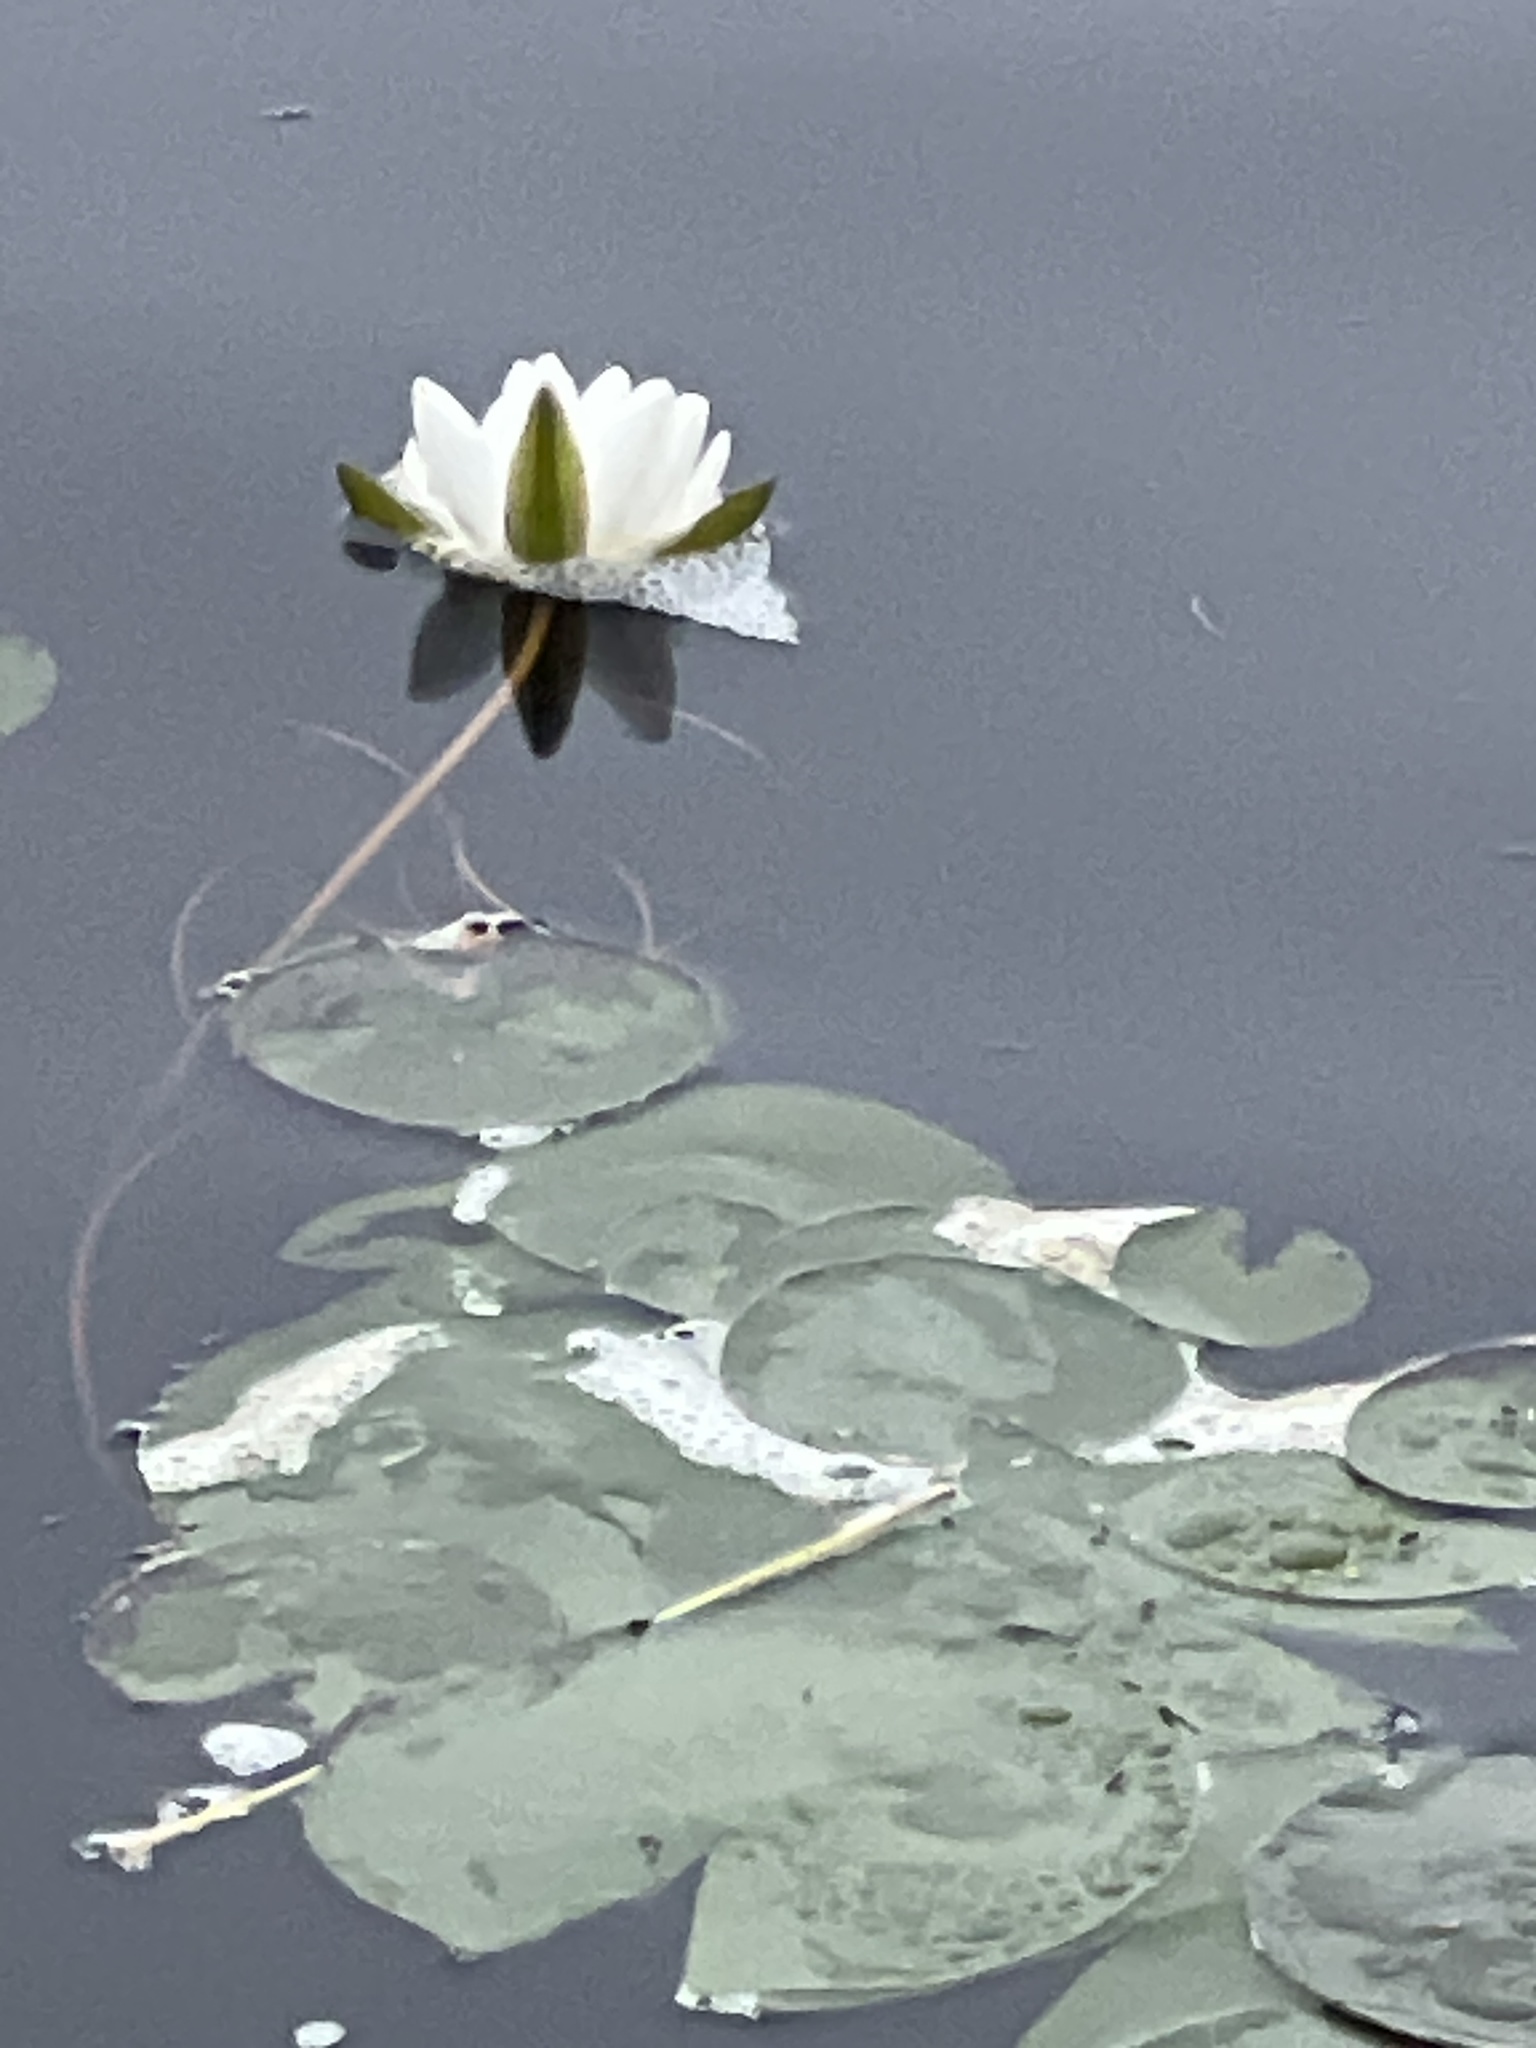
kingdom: Plantae
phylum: Tracheophyta
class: Magnoliopsida
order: Nymphaeales
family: Nymphaeaceae
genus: Nymphaea
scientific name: Nymphaea odorata
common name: Fragrant water-lily
